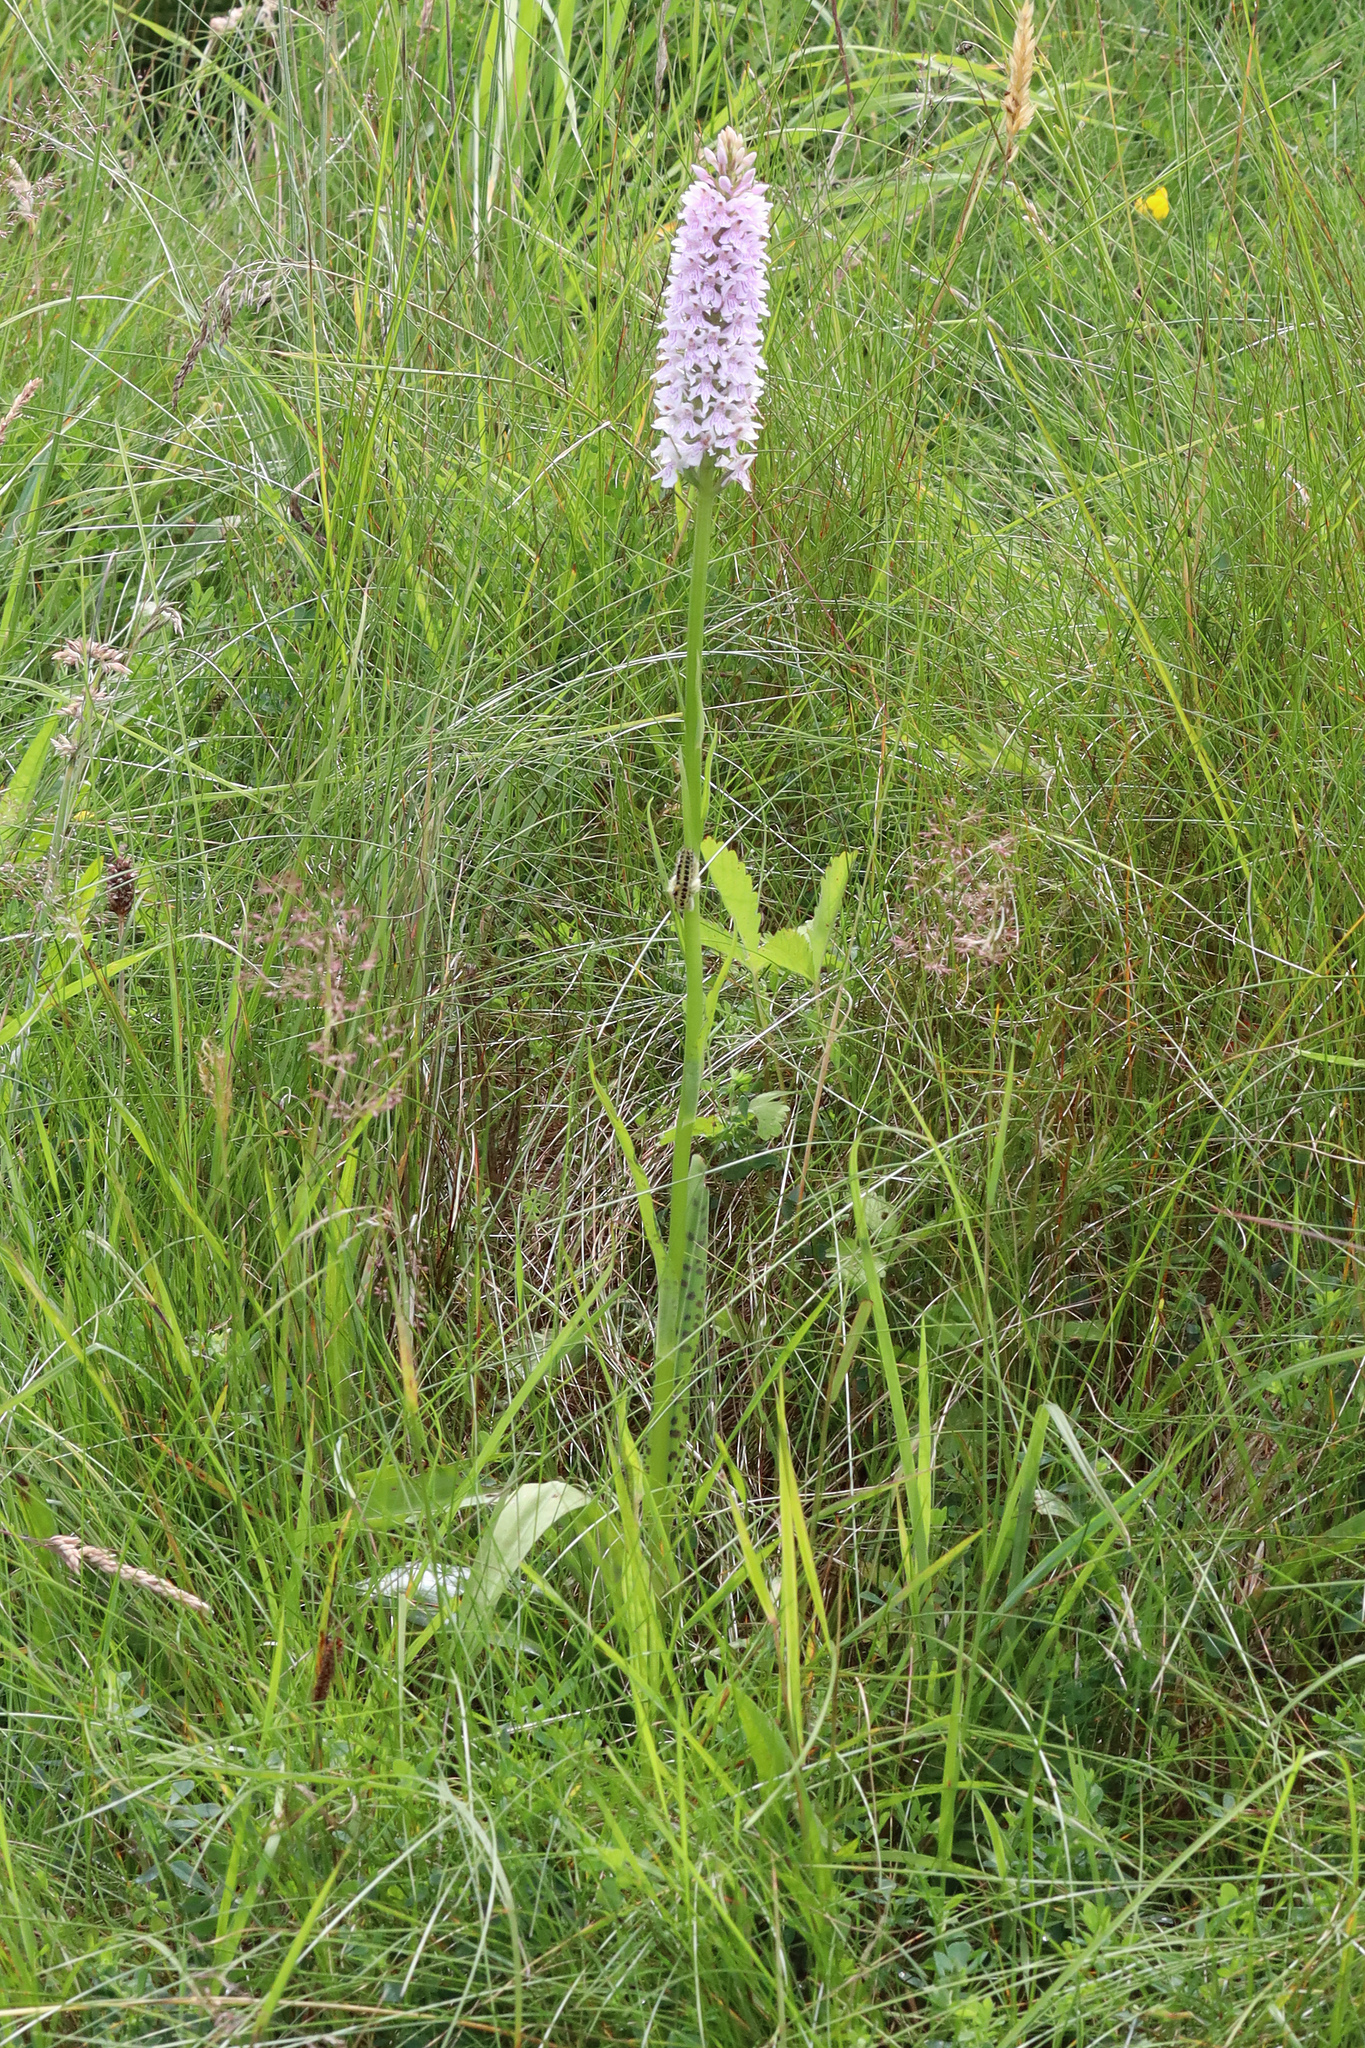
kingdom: Plantae
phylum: Tracheophyta
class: Liliopsida
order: Asparagales
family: Orchidaceae
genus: Dactylorhiza
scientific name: Dactylorhiza maculata
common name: Heath spotted-orchid
